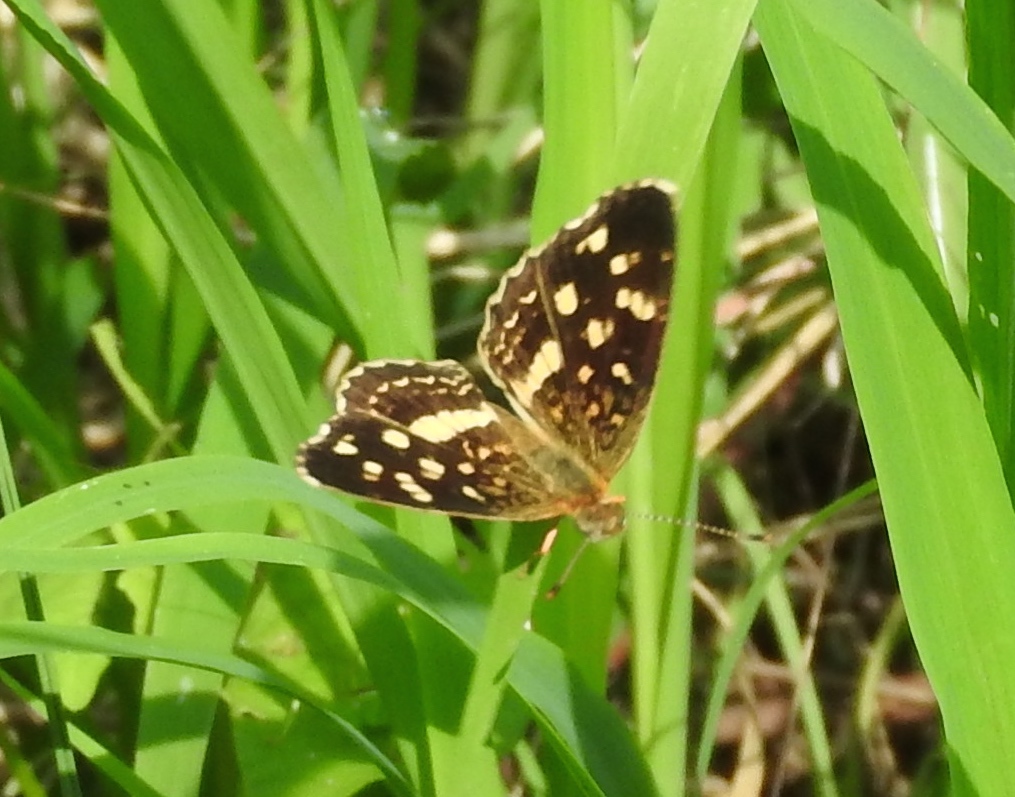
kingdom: Animalia
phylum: Arthropoda
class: Insecta
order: Lepidoptera
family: Nymphalidae
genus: Anthanassa
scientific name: Anthanassa tulcis
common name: Pale-banded crescent
